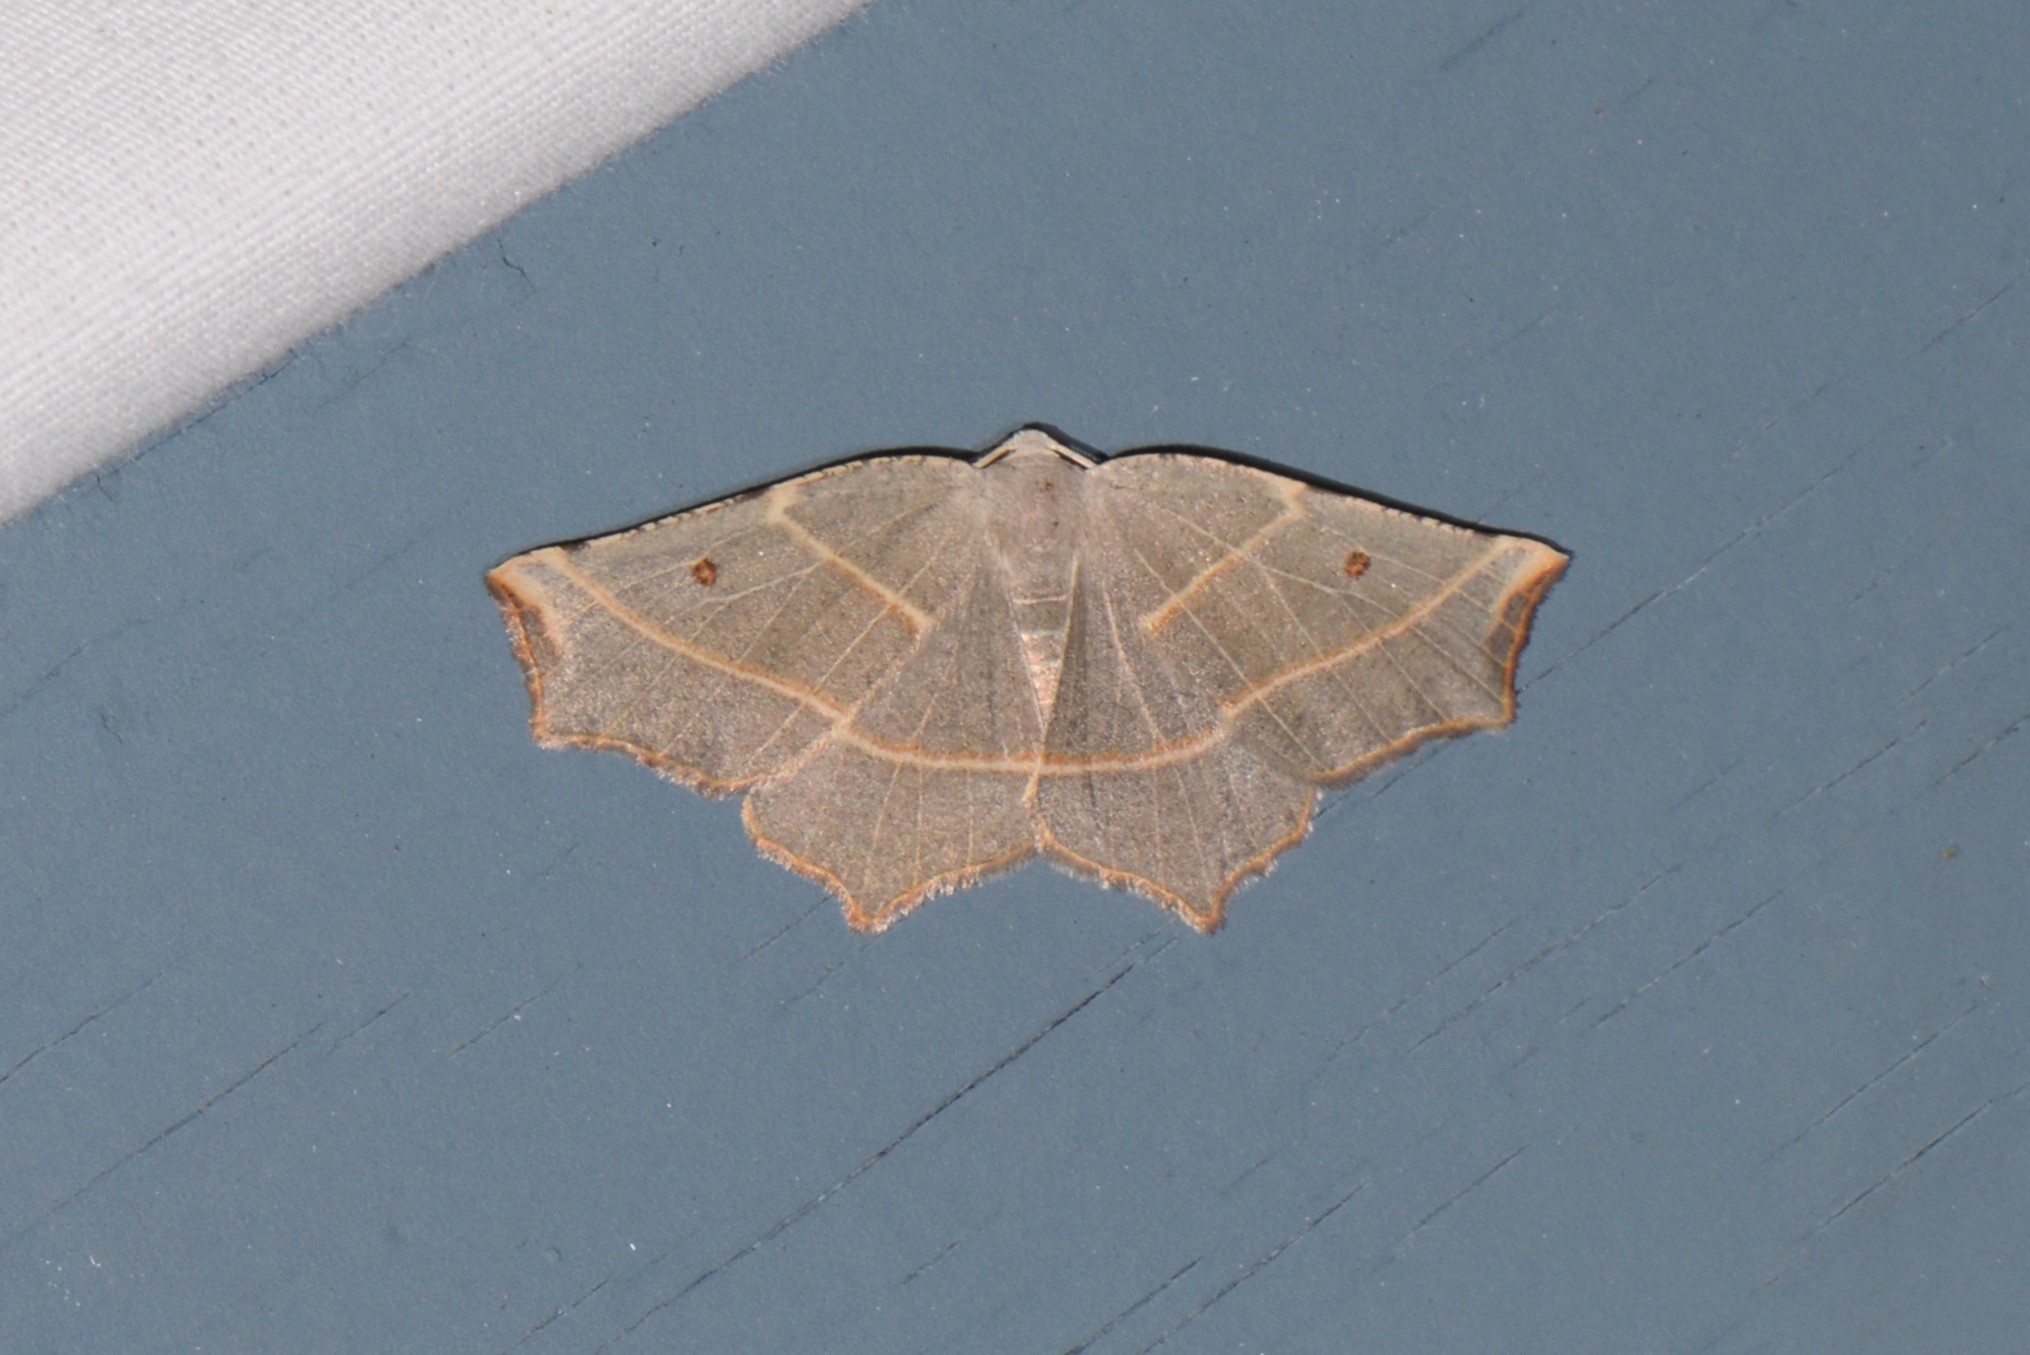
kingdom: Animalia
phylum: Arthropoda
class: Insecta
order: Lepidoptera
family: Geometridae
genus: Metanema
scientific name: Metanema inatomaria
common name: Pale metanema
